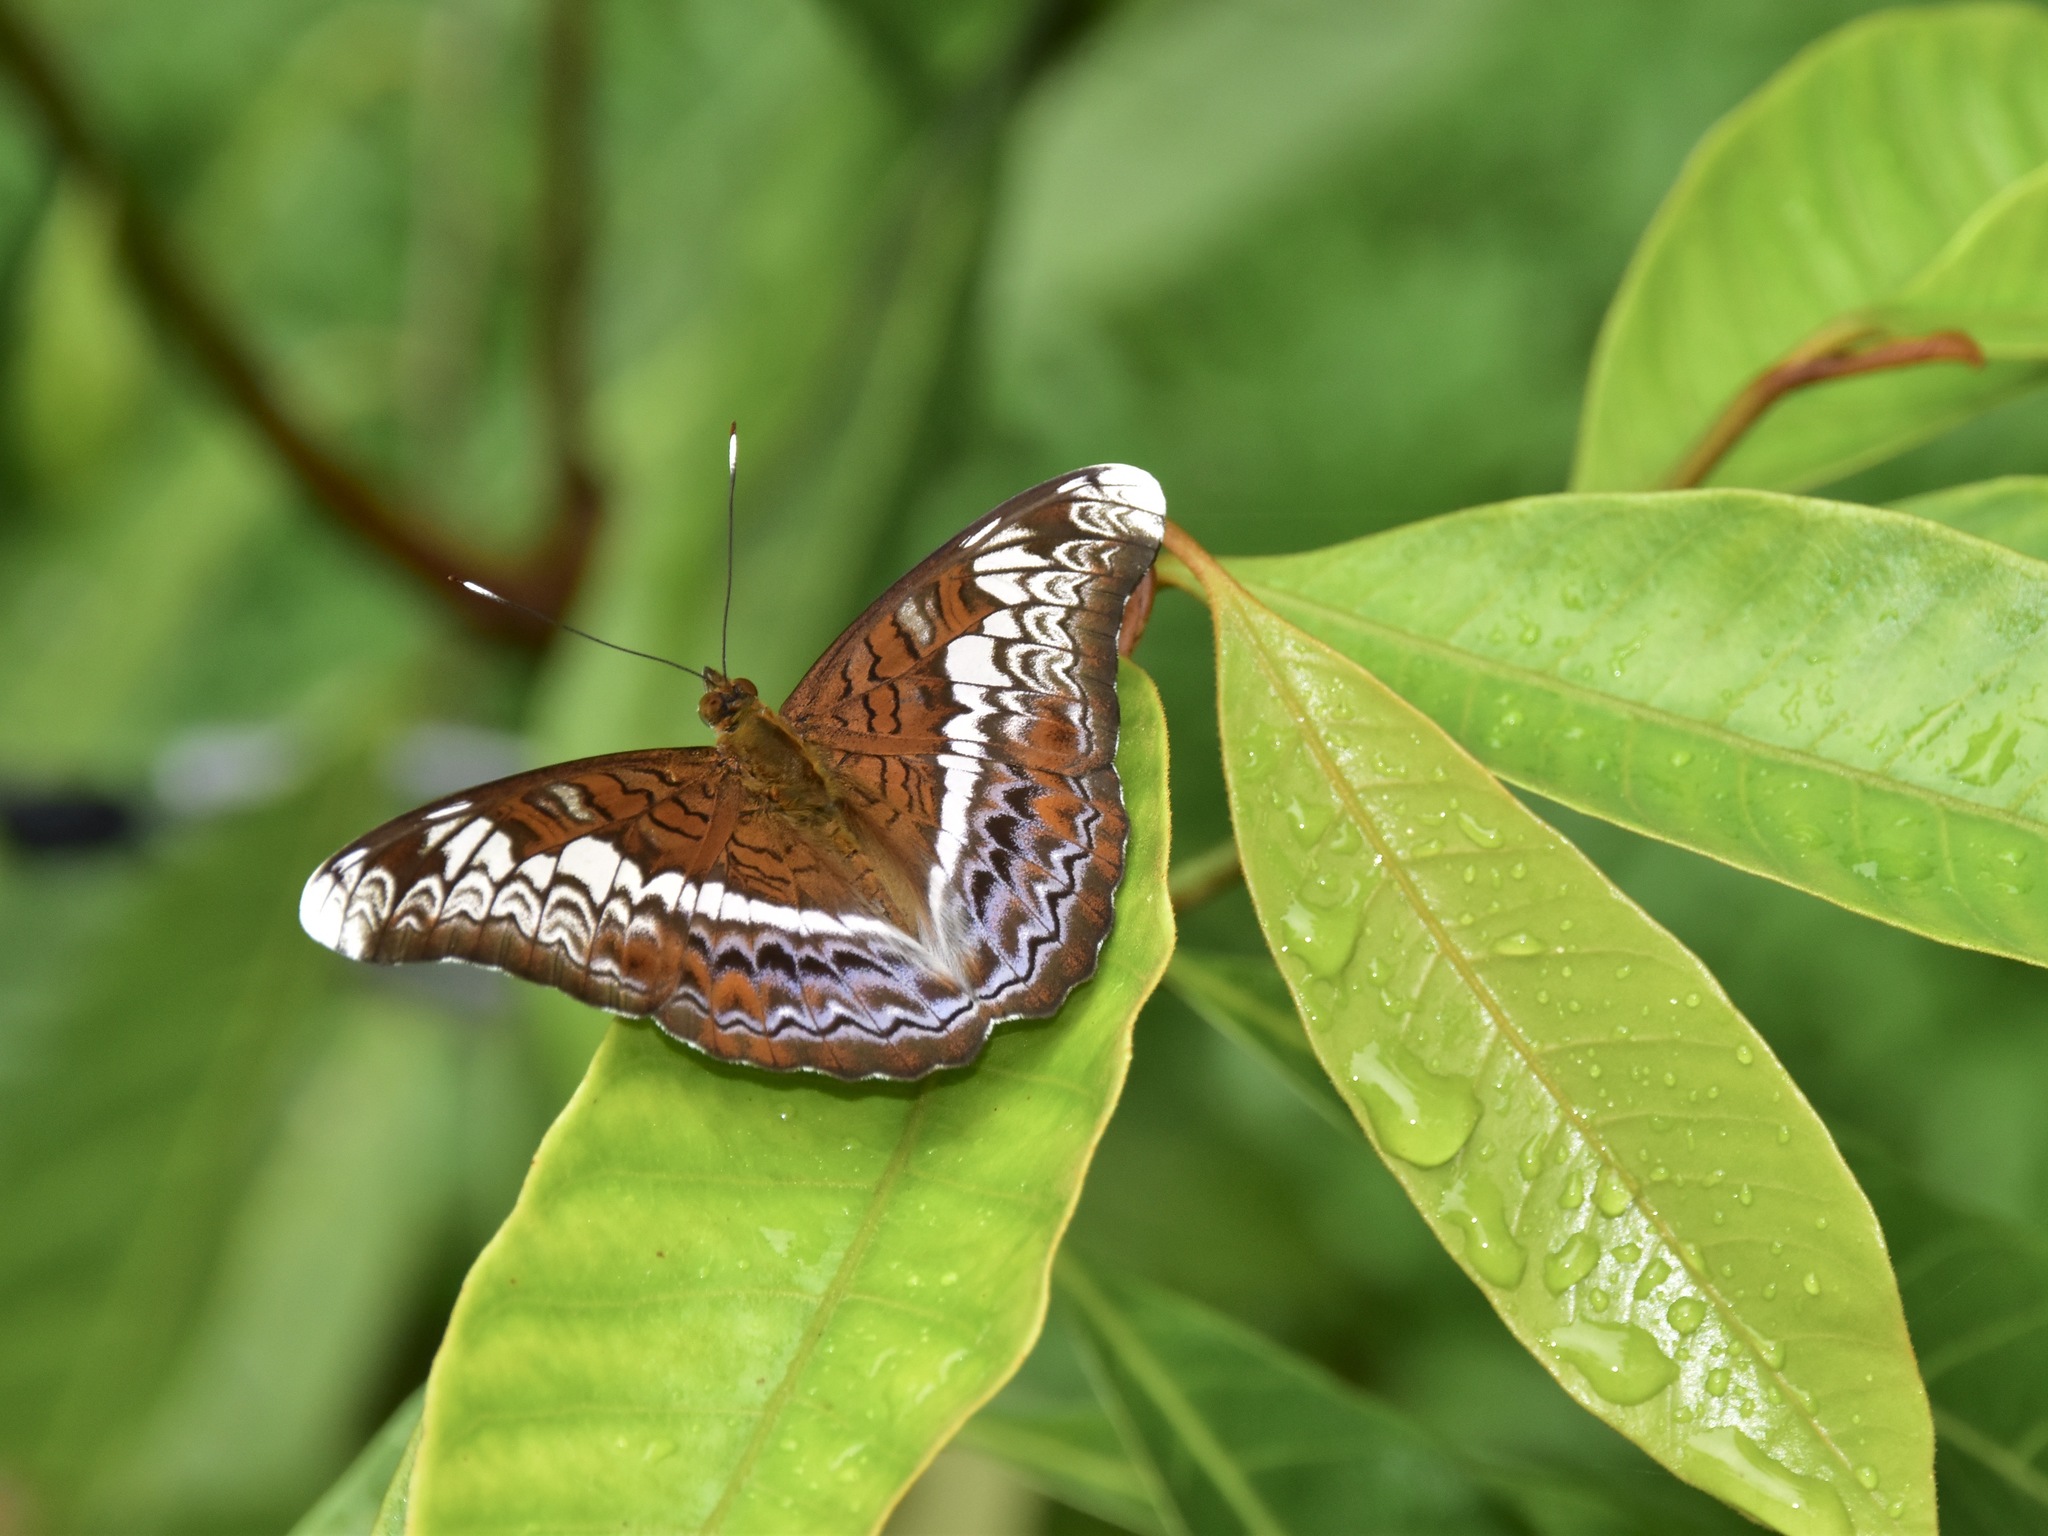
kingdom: Animalia
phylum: Arthropoda
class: Insecta
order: Lepidoptera
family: Nymphalidae
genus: Lebadea
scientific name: Lebadea martha
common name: Knight
